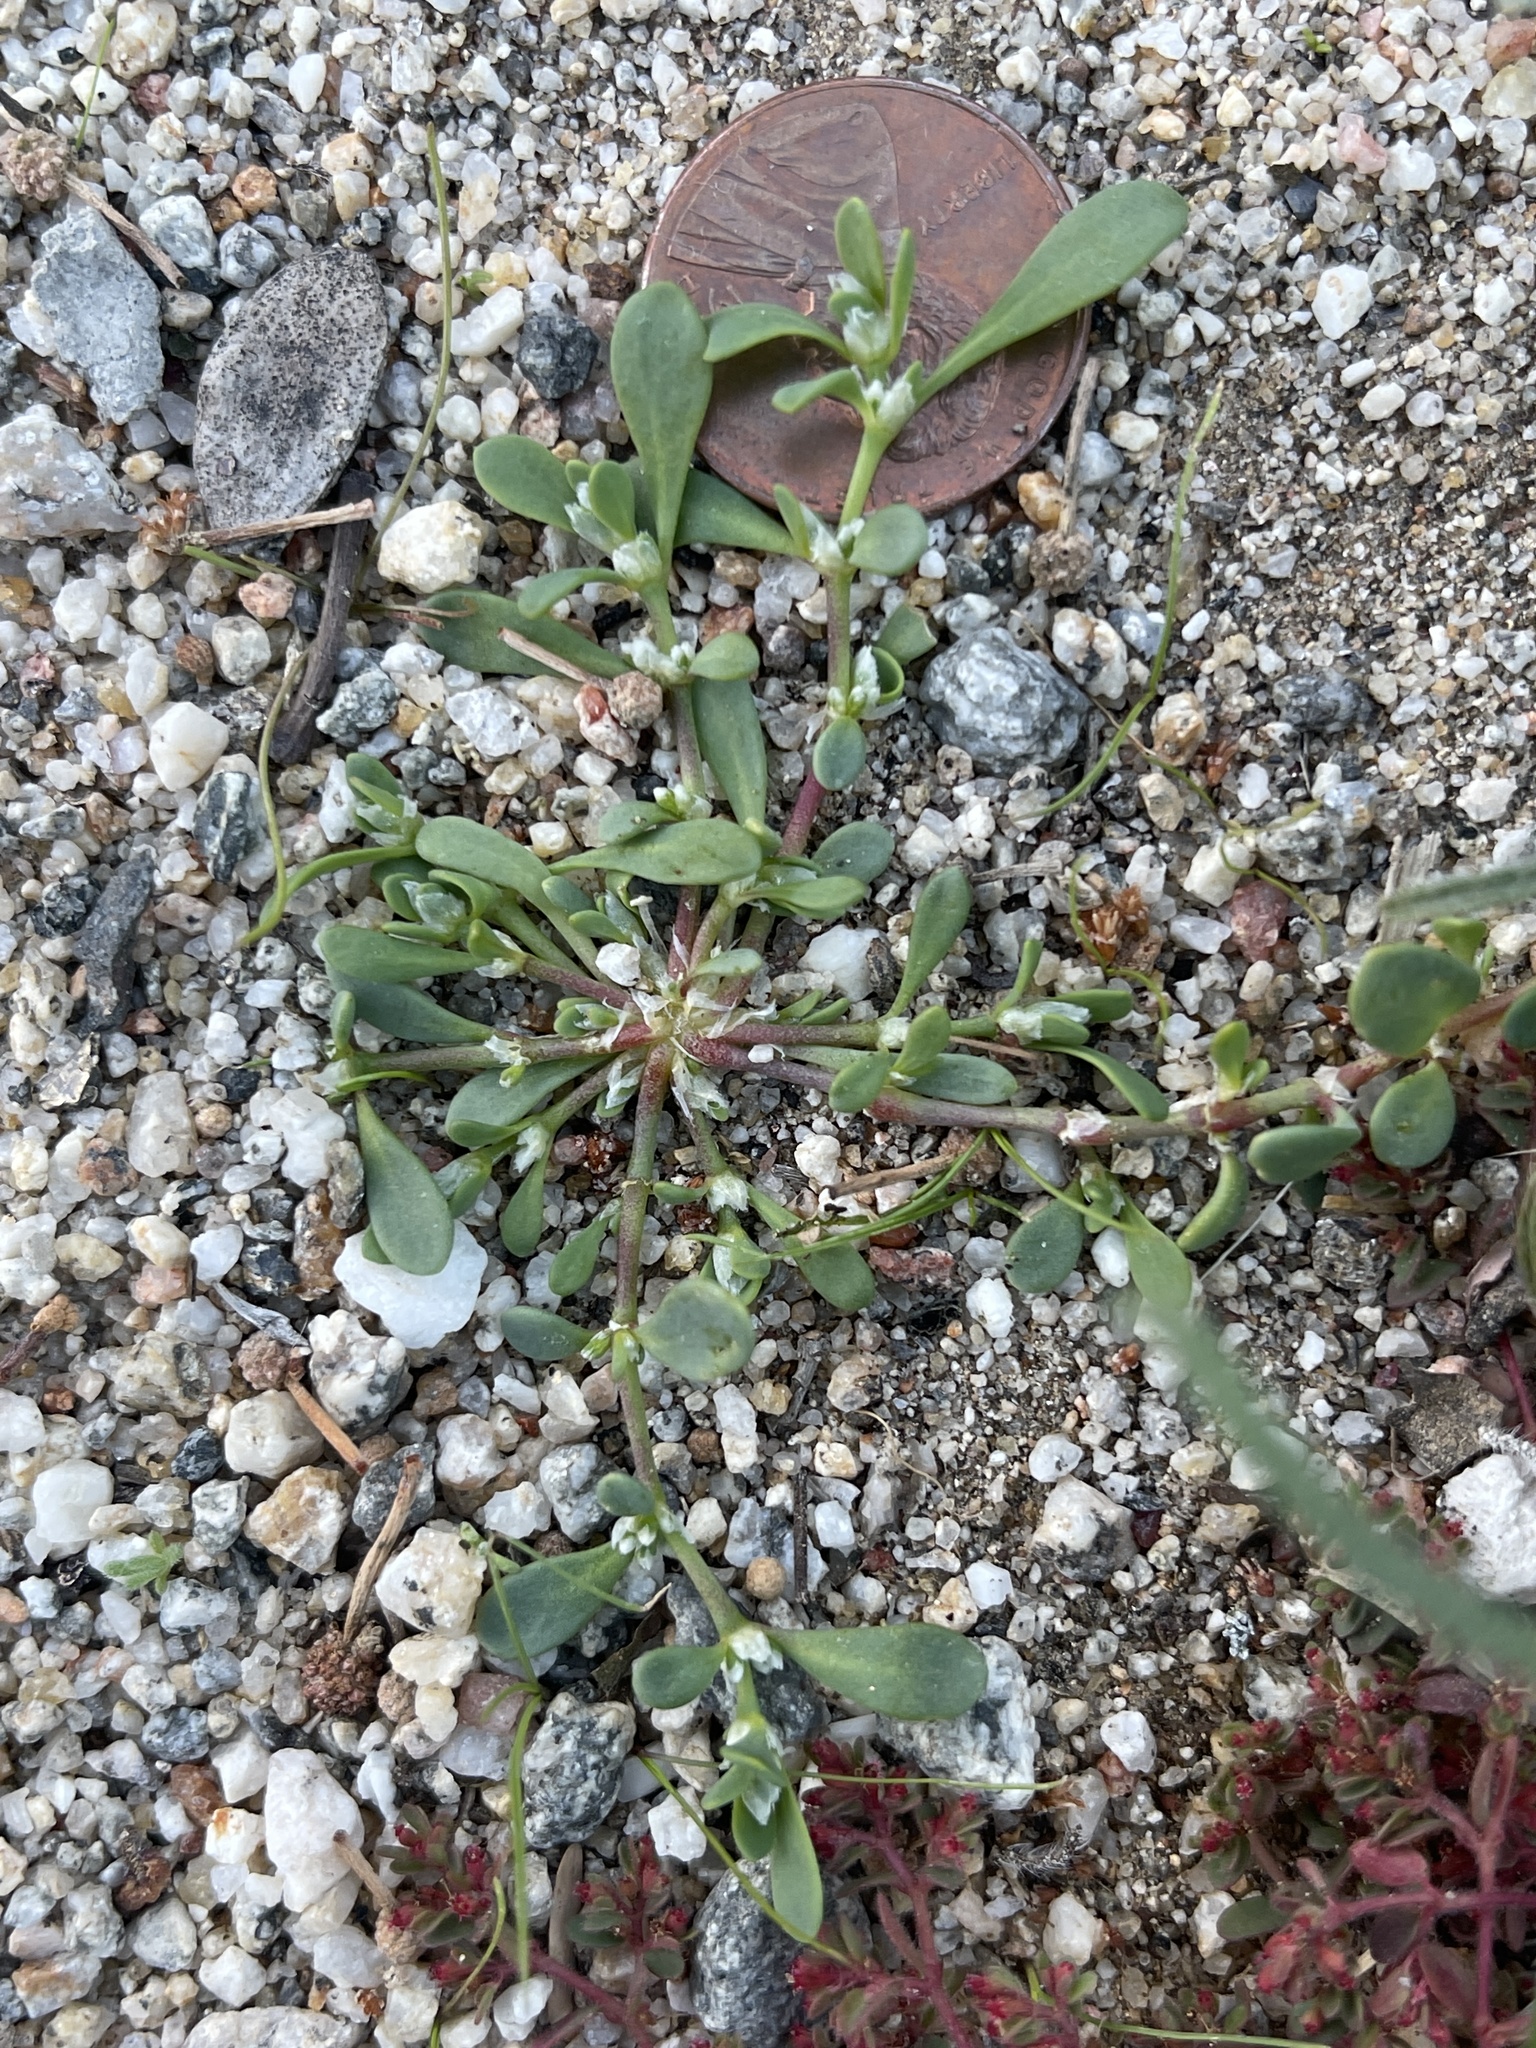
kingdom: Plantae
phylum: Tracheophyta
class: Magnoliopsida
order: Caryophyllales
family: Caryophyllaceae
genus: Achyronychia
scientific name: Achyronychia cooperi
